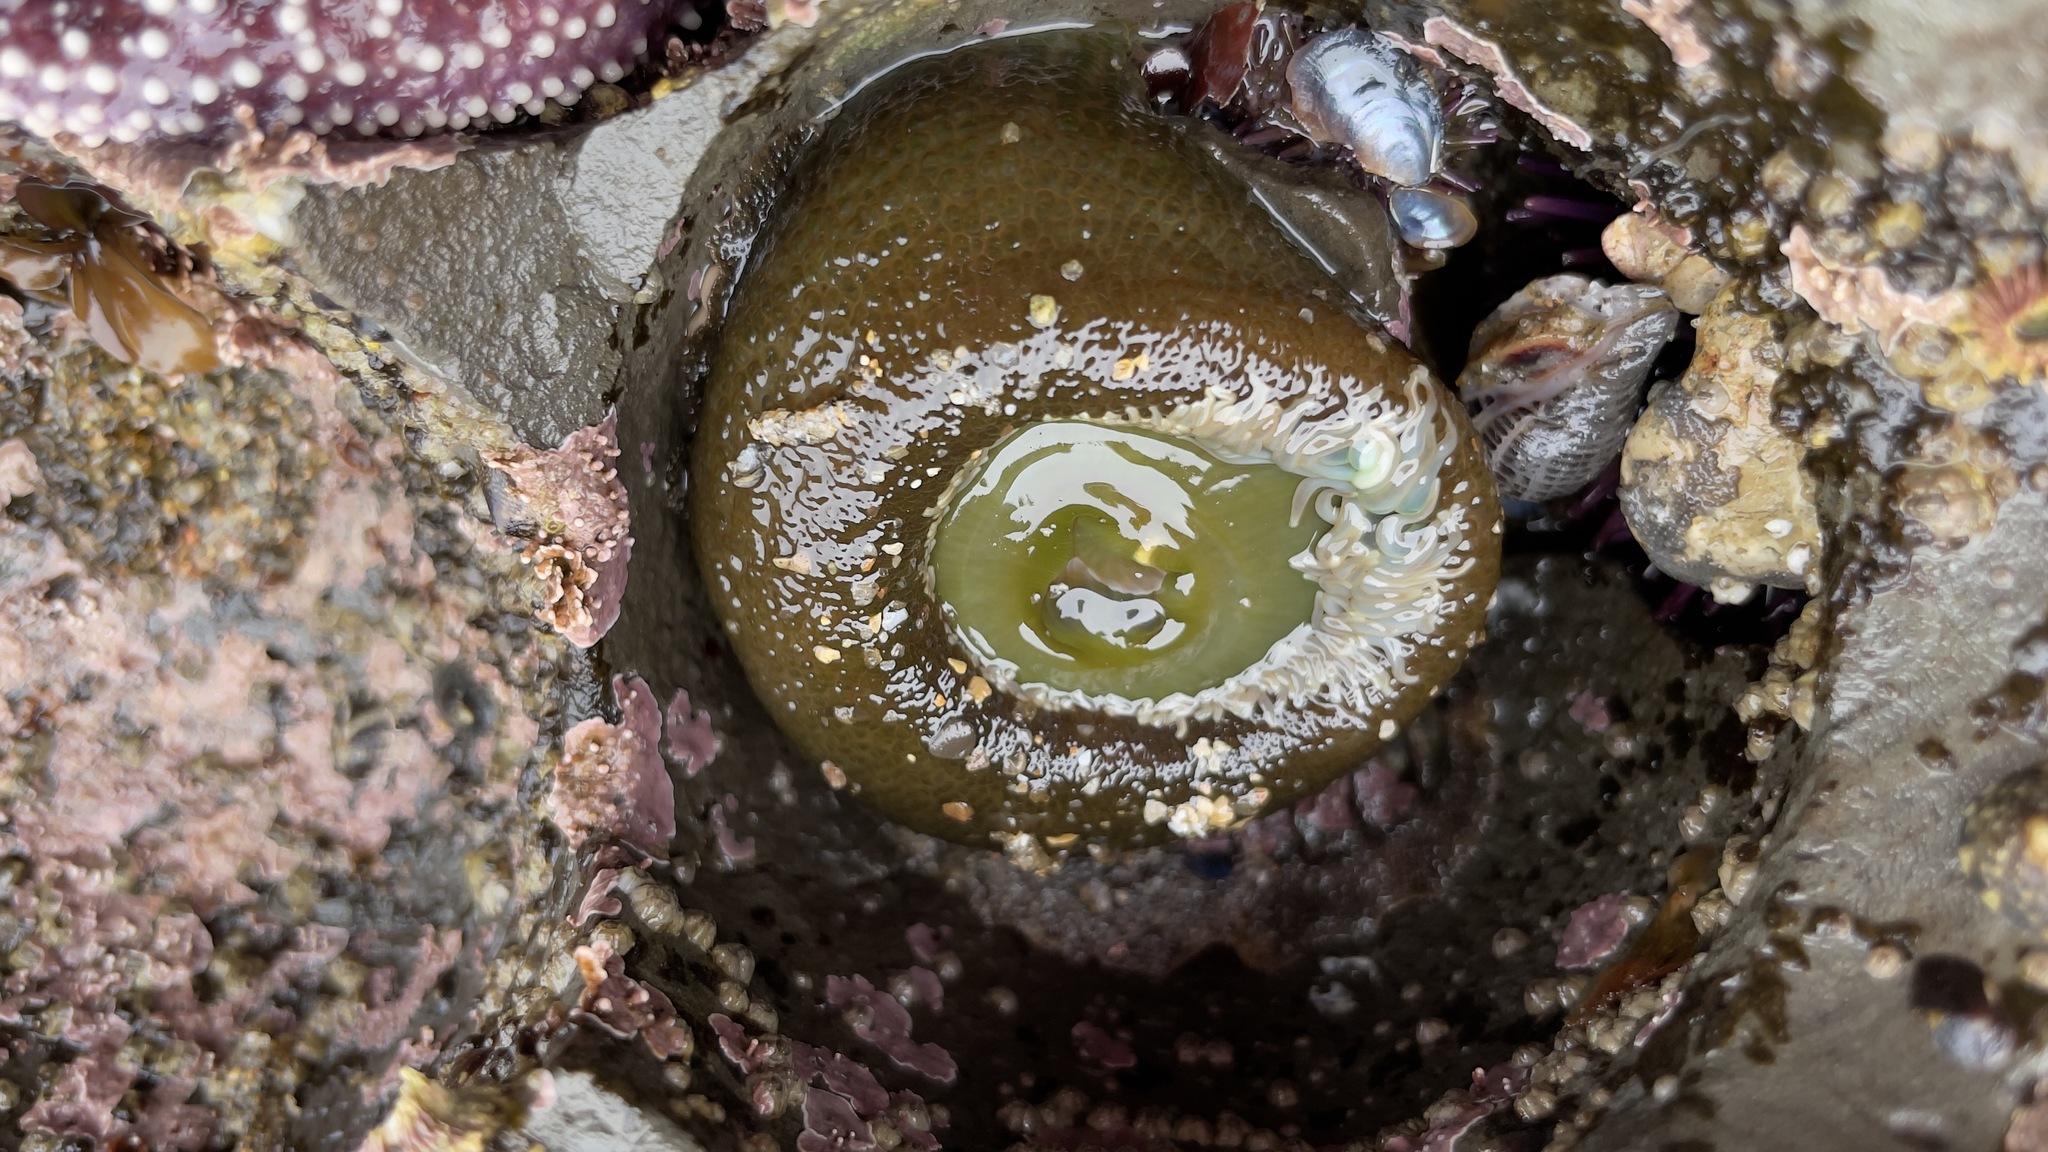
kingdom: Animalia
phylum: Cnidaria
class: Anthozoa
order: Actiniaria
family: Actiniidae
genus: Anthopleura
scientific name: Anthopleura xanthogrammica
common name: Giant green anemone
